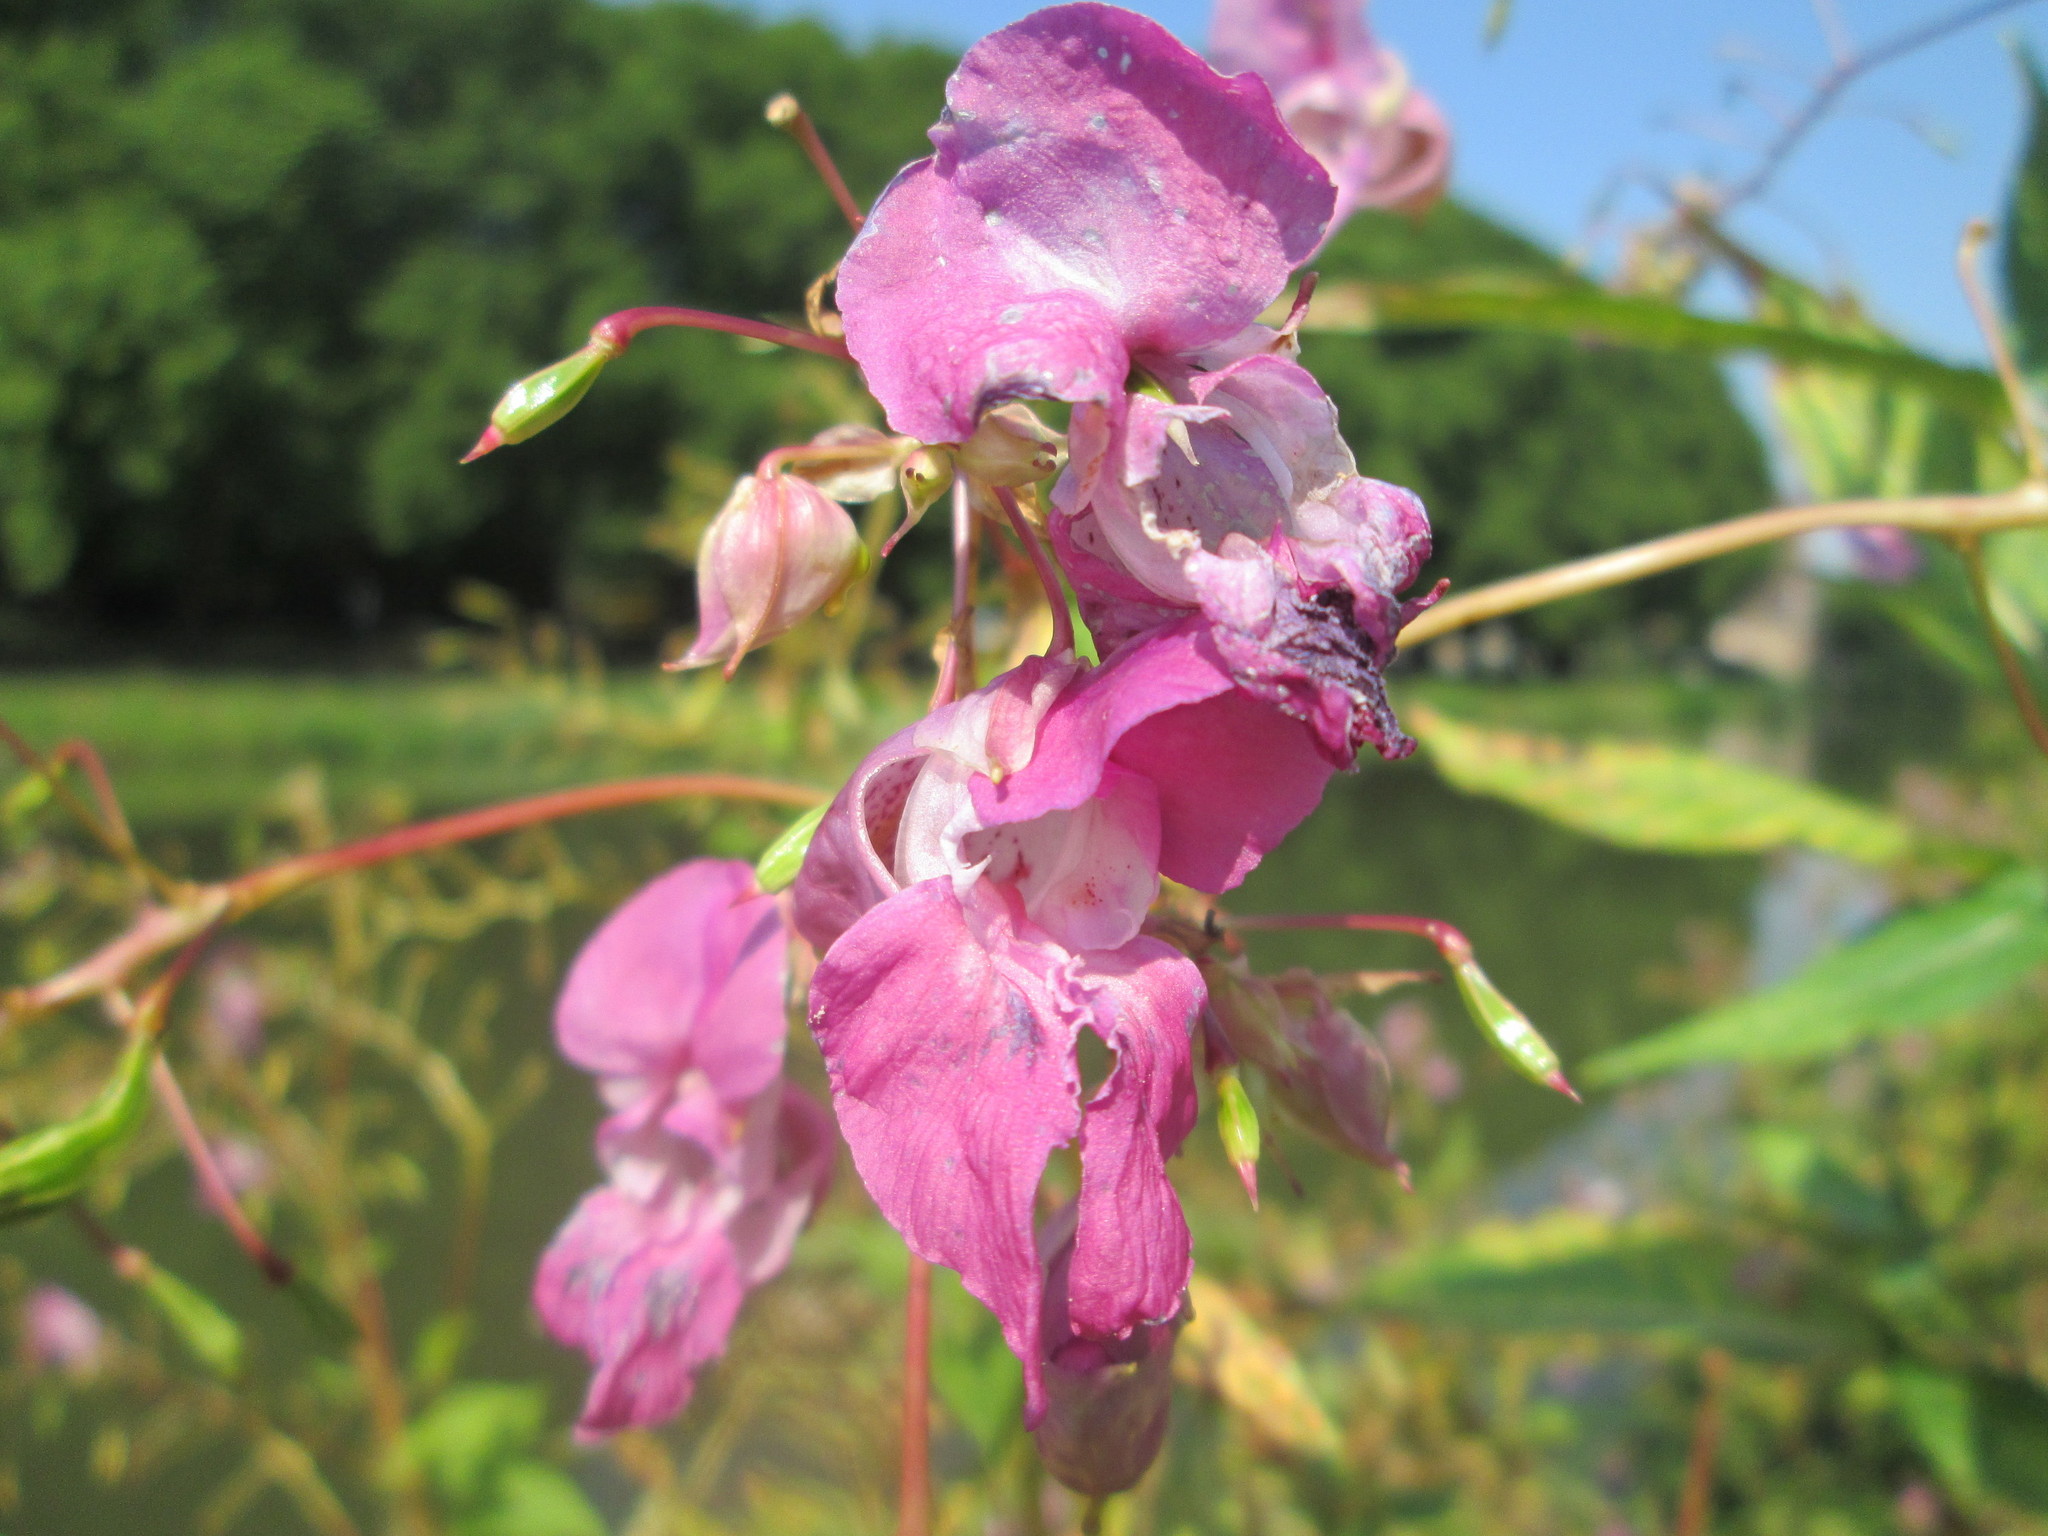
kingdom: Plantae
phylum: Tracheophyta
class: Magnoliopsida
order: Ericales
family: Balsaminaceae
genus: Impatiens
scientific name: Impatiens glandulifera
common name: Himalayan balsam
